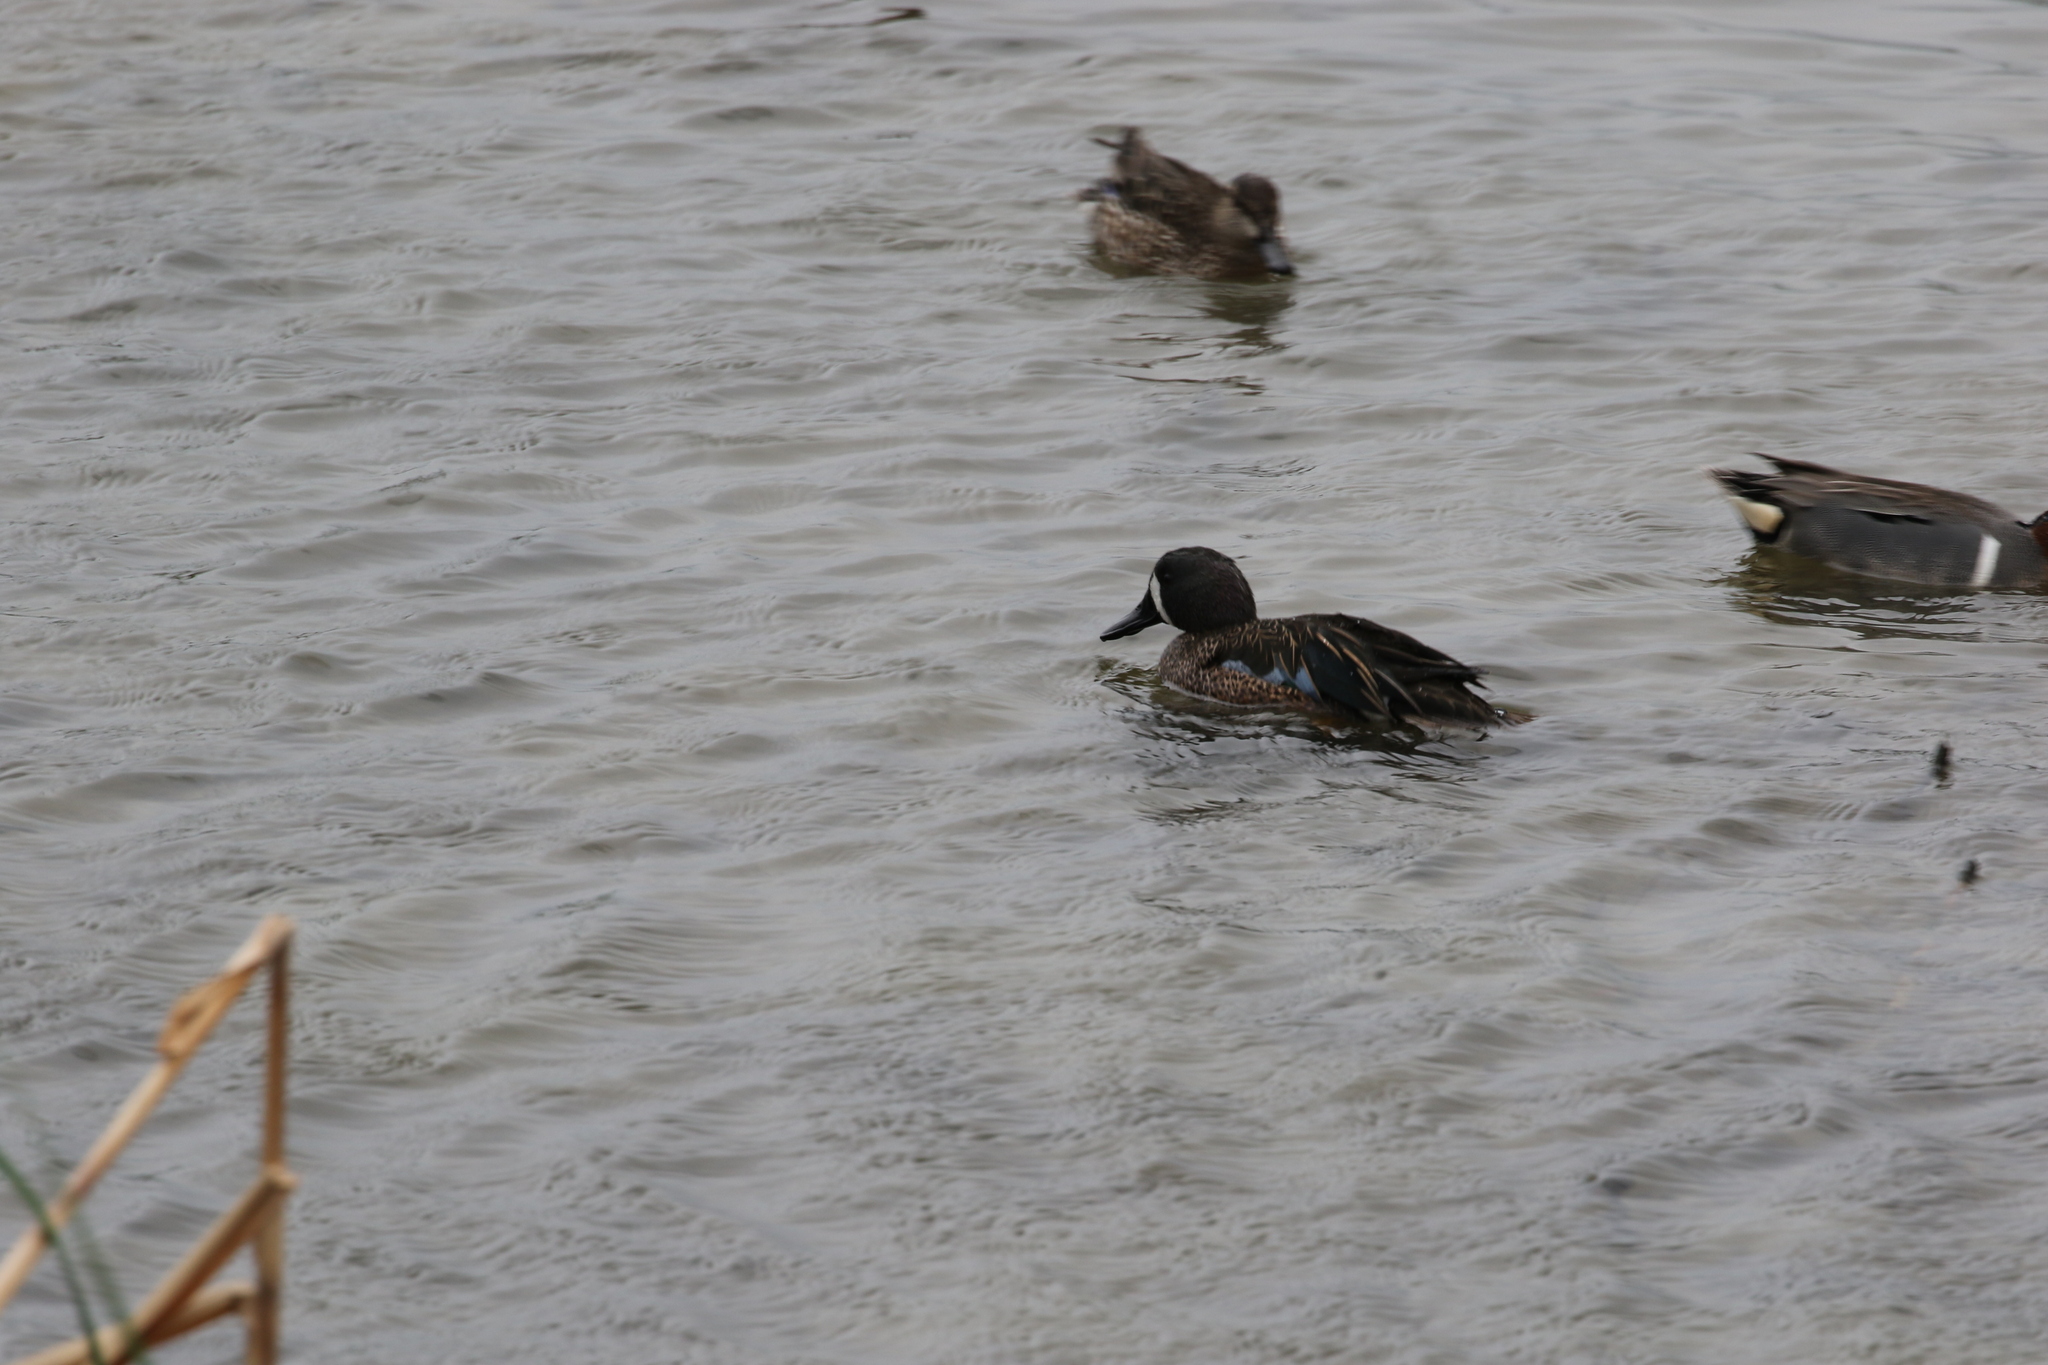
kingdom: Animalia
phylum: Chordata
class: Aves
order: Anseriformes
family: Anatidae
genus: Spatula
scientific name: Spatula discors
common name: Blue-winged teal
